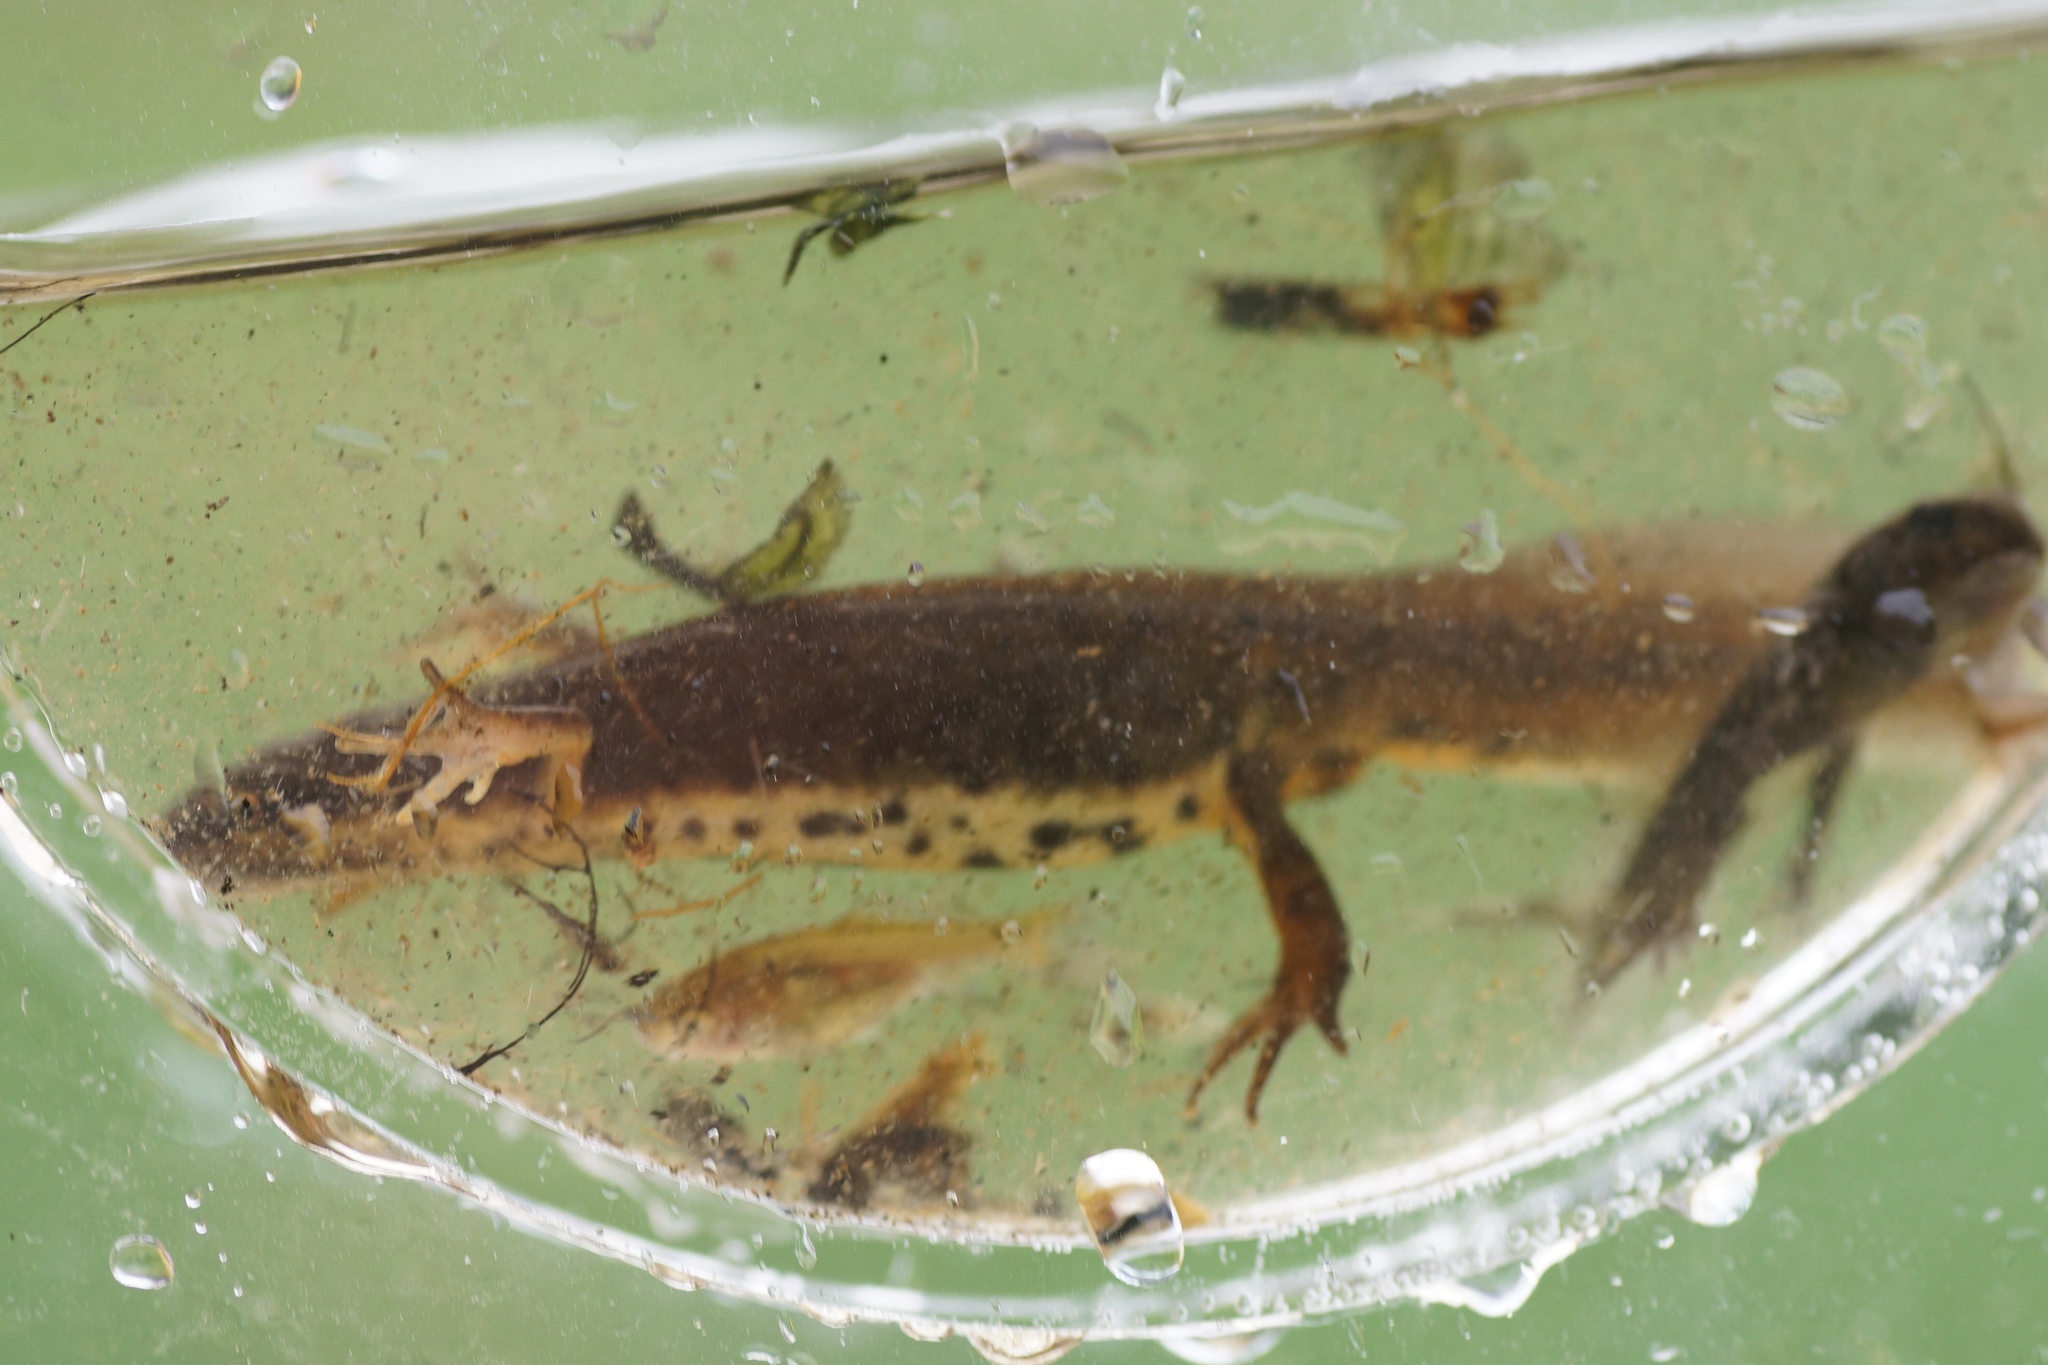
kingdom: Animalia
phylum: Chordata
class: Amphibia
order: Caudata
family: Salamandridae
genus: Lissotriton
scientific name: Lissotriton vulgaris
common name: Smooth newt
